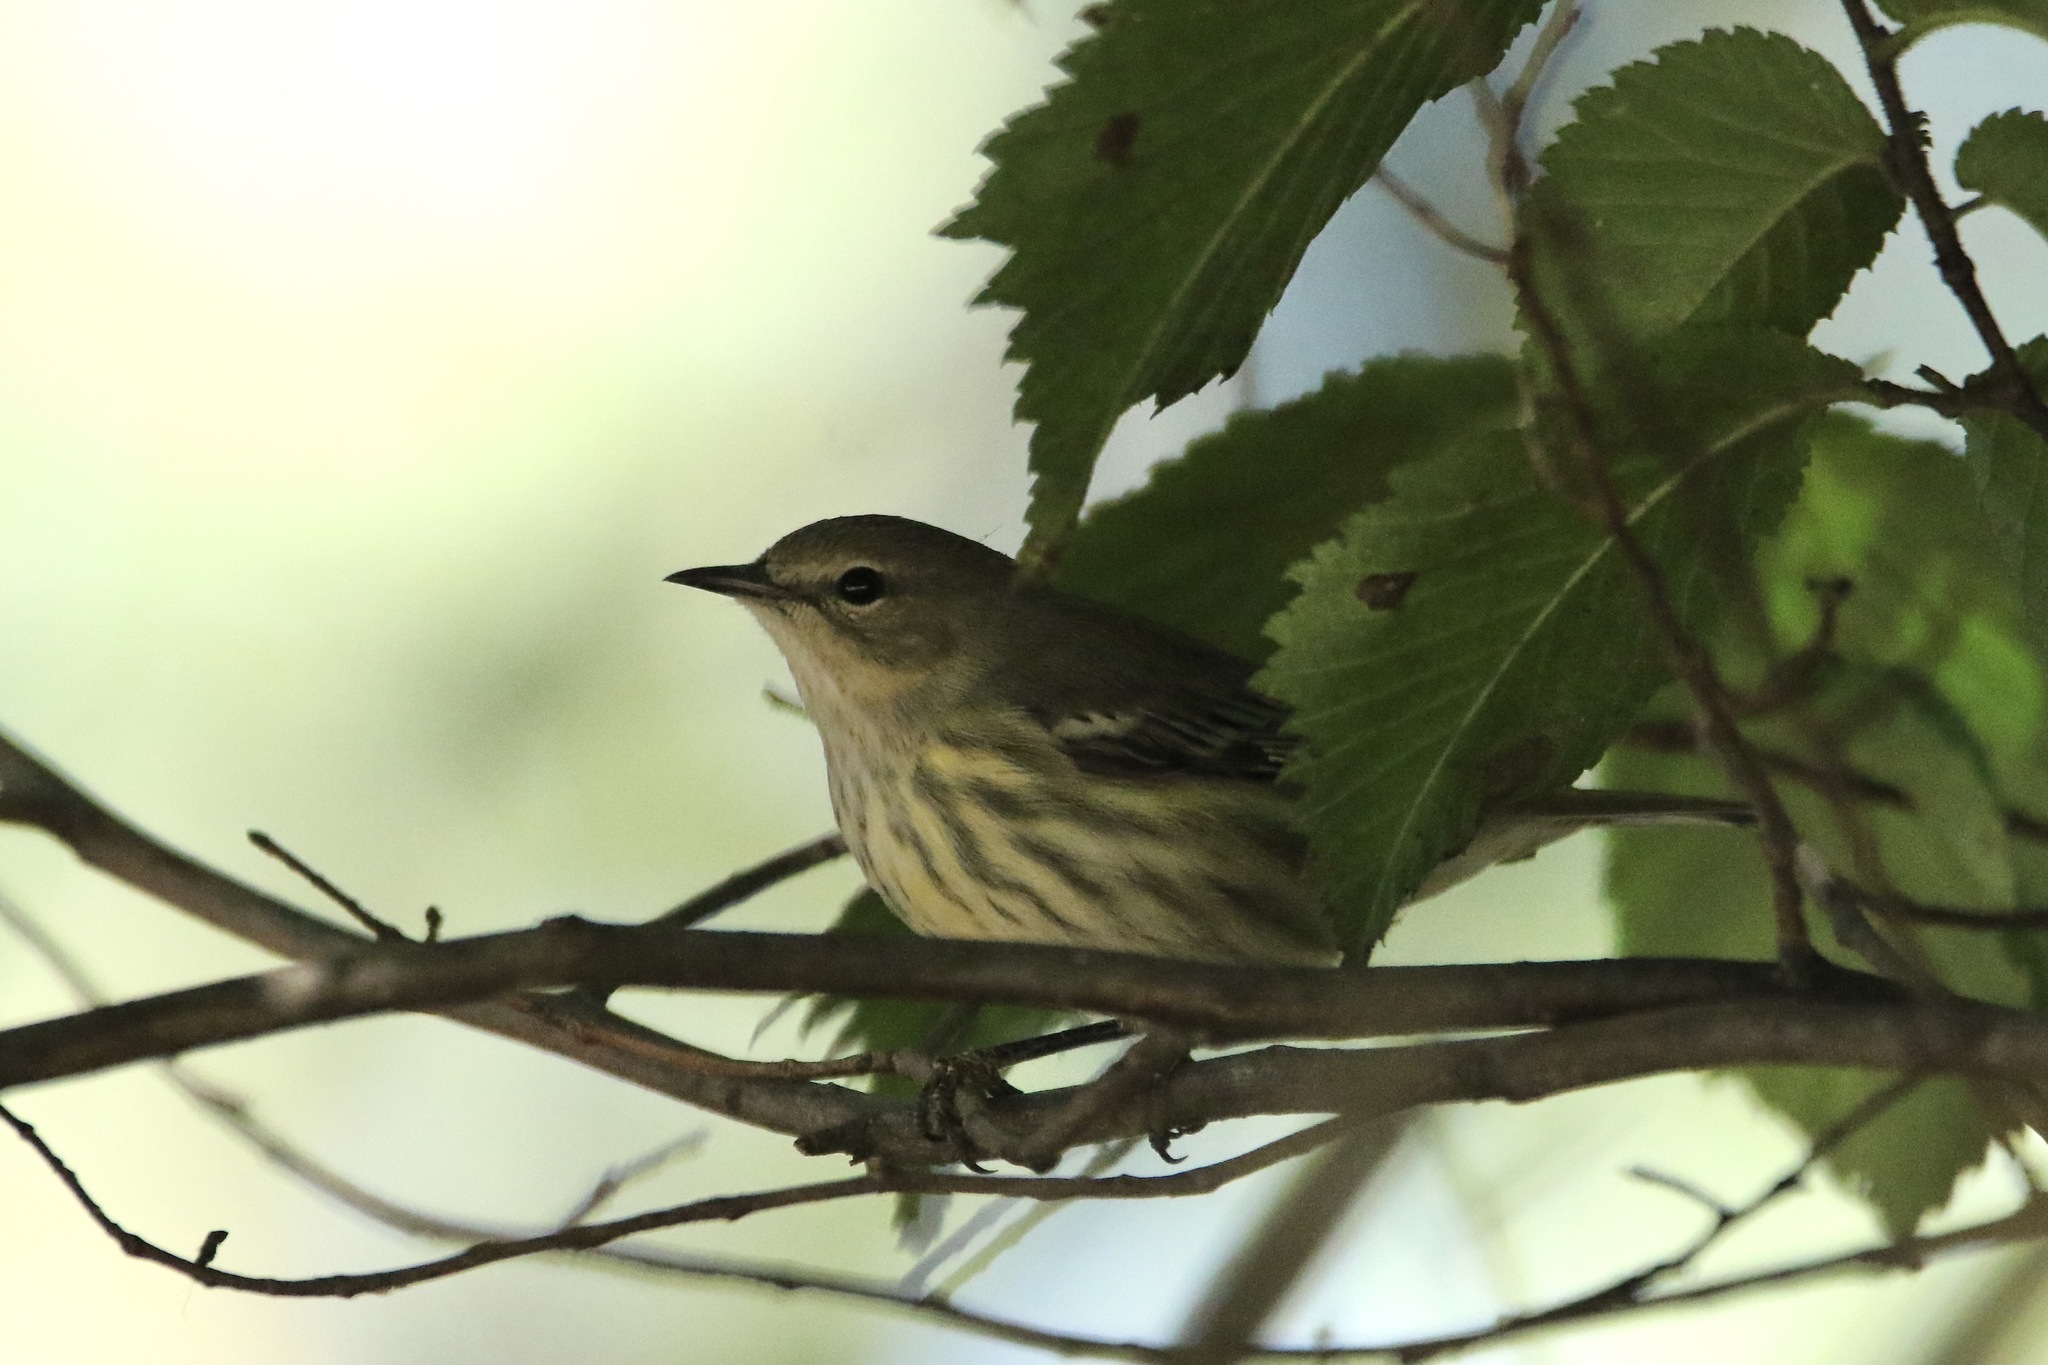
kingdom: Animalia
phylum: Chordata
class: Aves
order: Passeriformes
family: Parulidae
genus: Setophaga
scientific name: Setophaga tigrina
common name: Cape may warbler
